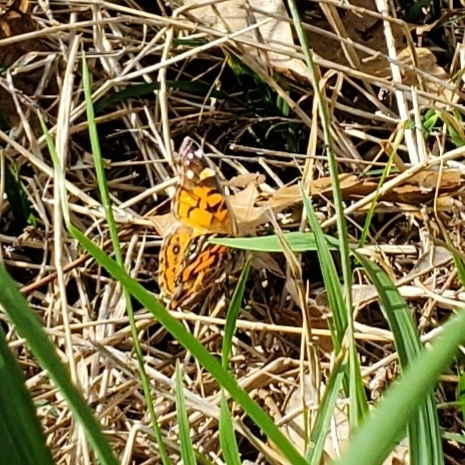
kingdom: Animalia
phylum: Arthropoda
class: Insecta
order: Lepidoptera
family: Nymphalidae
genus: Vanessa
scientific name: Vanessa virginiensis
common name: American lady
